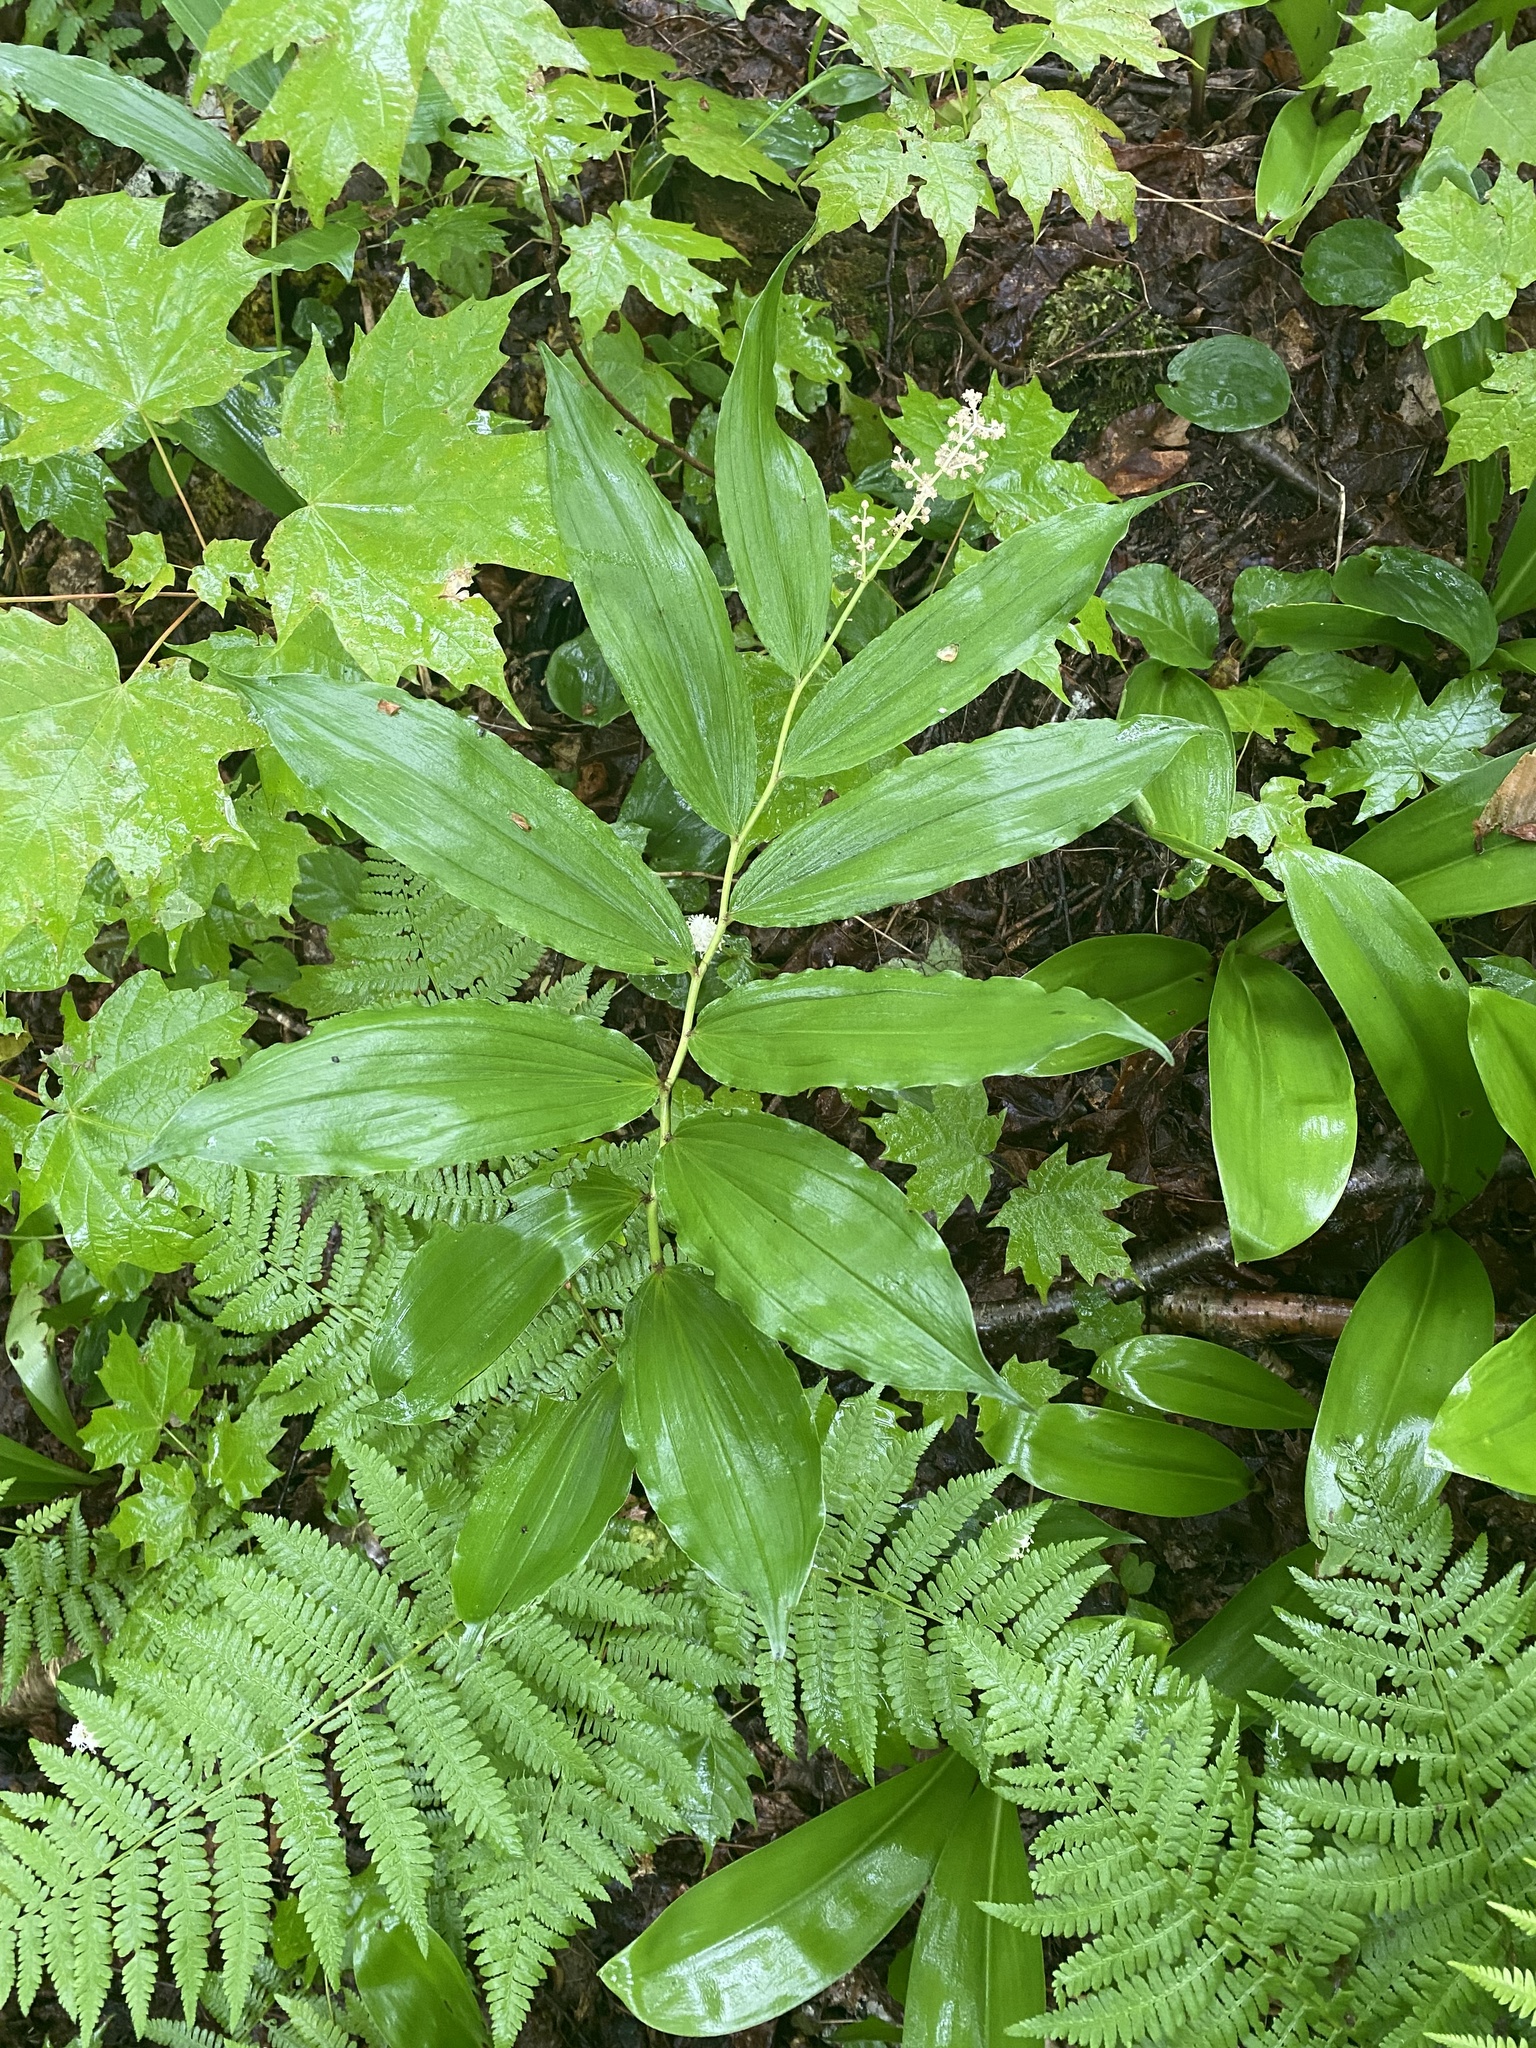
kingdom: Plantae
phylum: Tracheophyta
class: Liliopsida
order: Asparagales
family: Asparagaceae
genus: Maianthemum
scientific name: Maianthemum racemosum
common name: False spikenard
